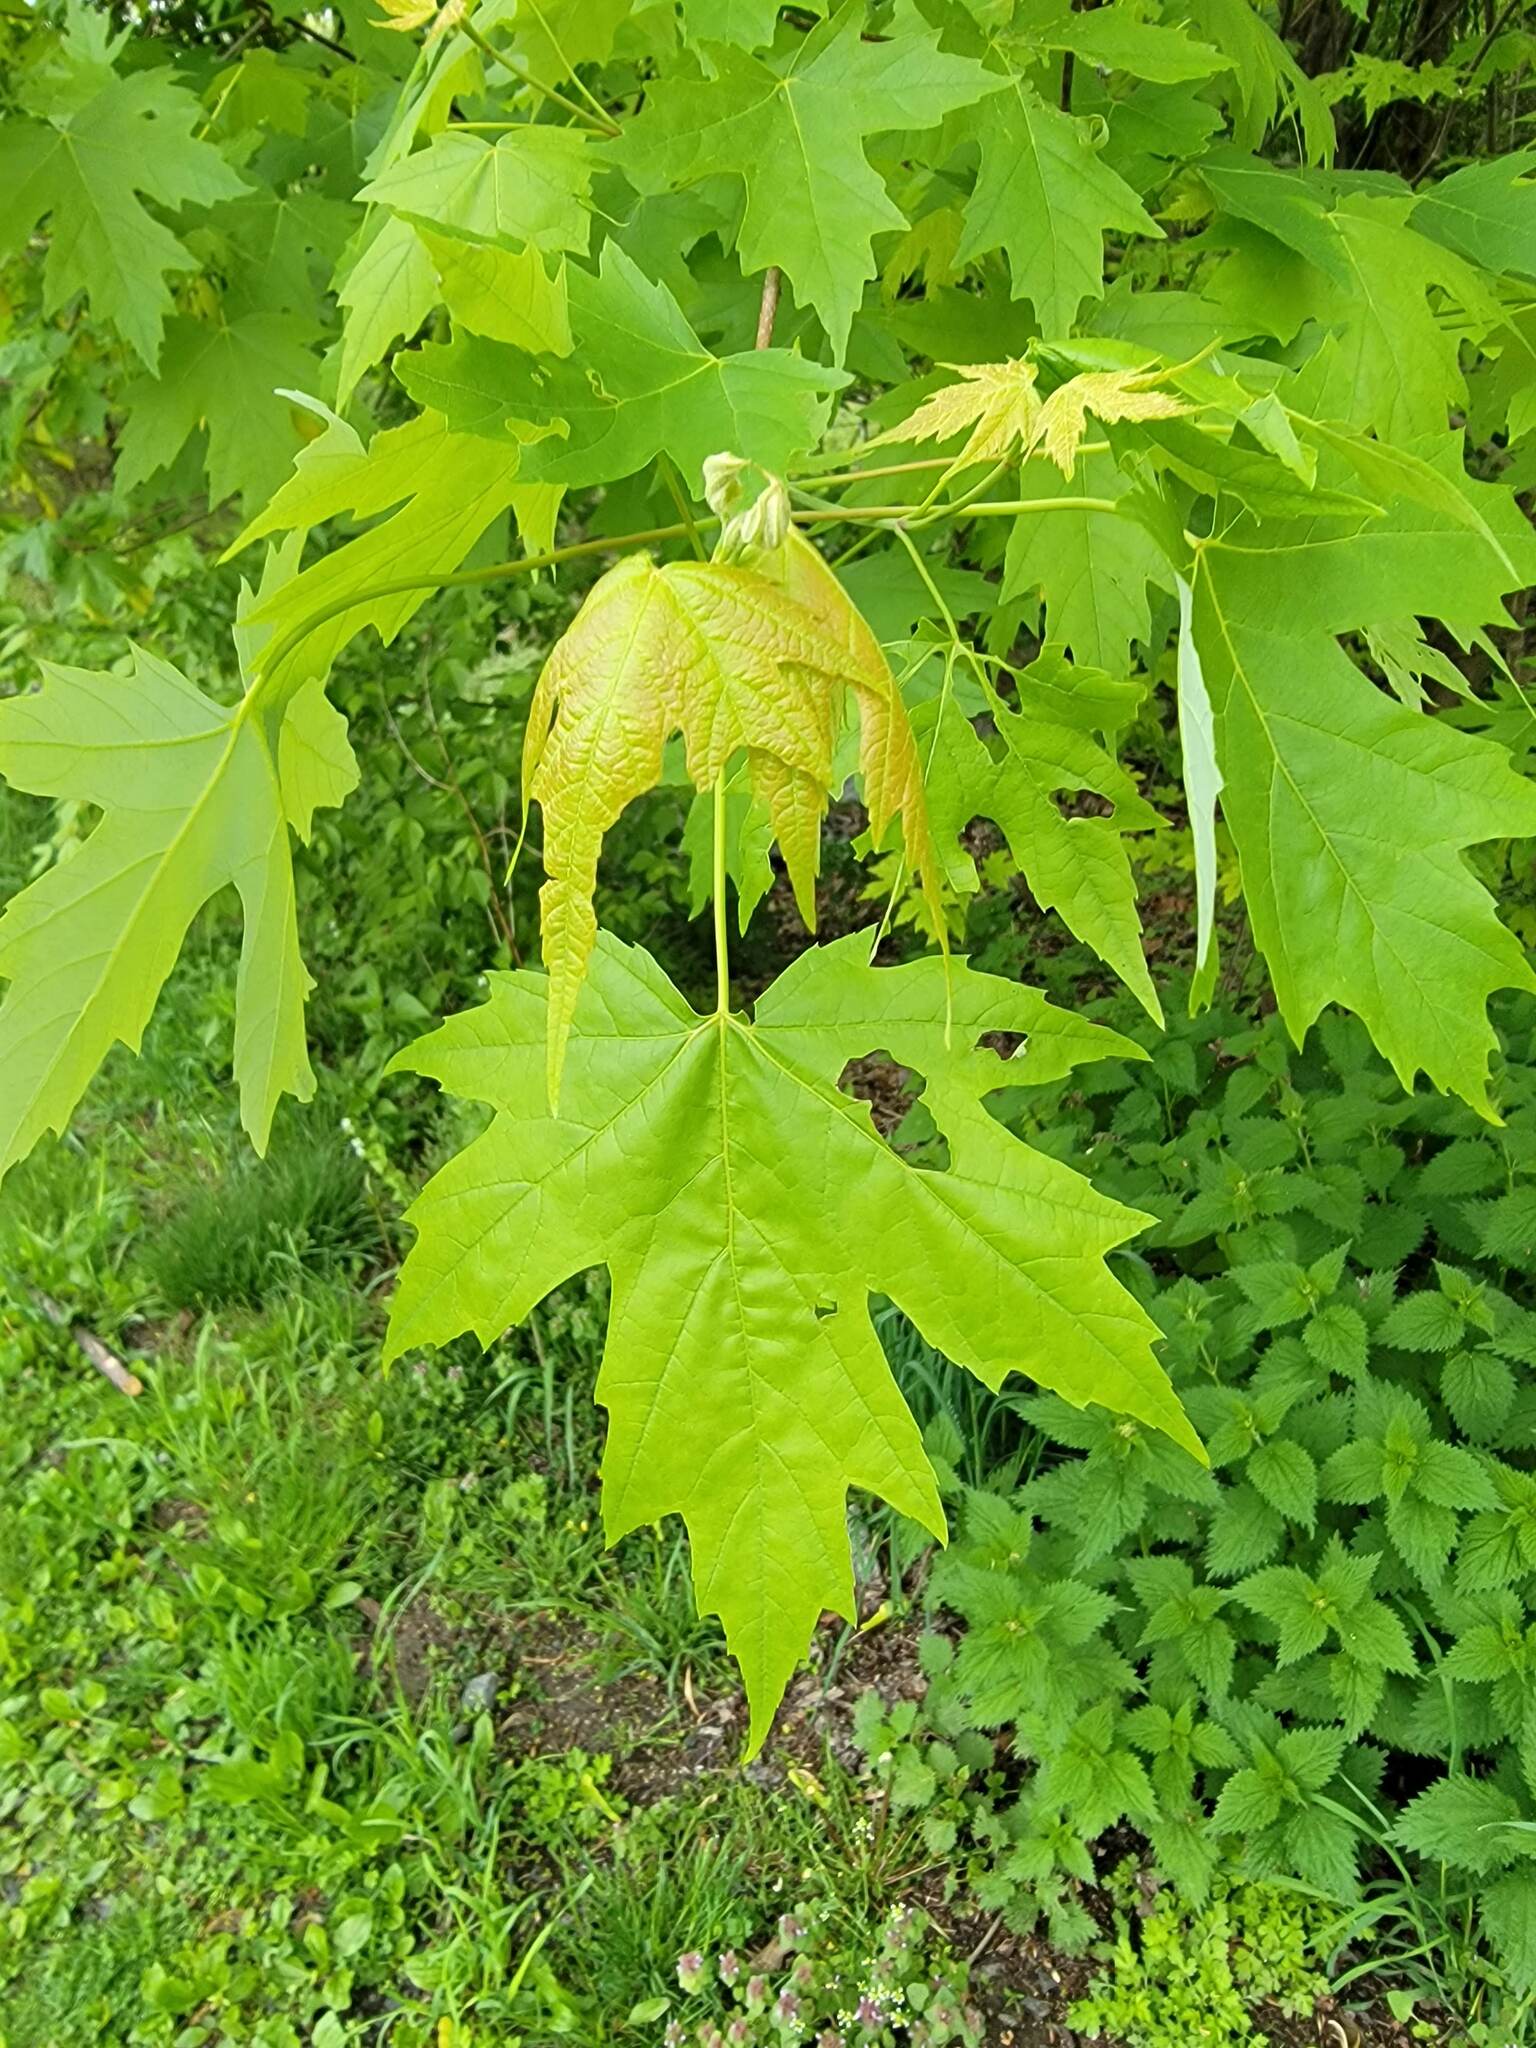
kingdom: Plantae
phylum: Tracheophyta
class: Magnoliopsida
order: Sapindales
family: Sapindaceae
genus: Acer
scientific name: Acer saccharinum
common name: Silver maple
